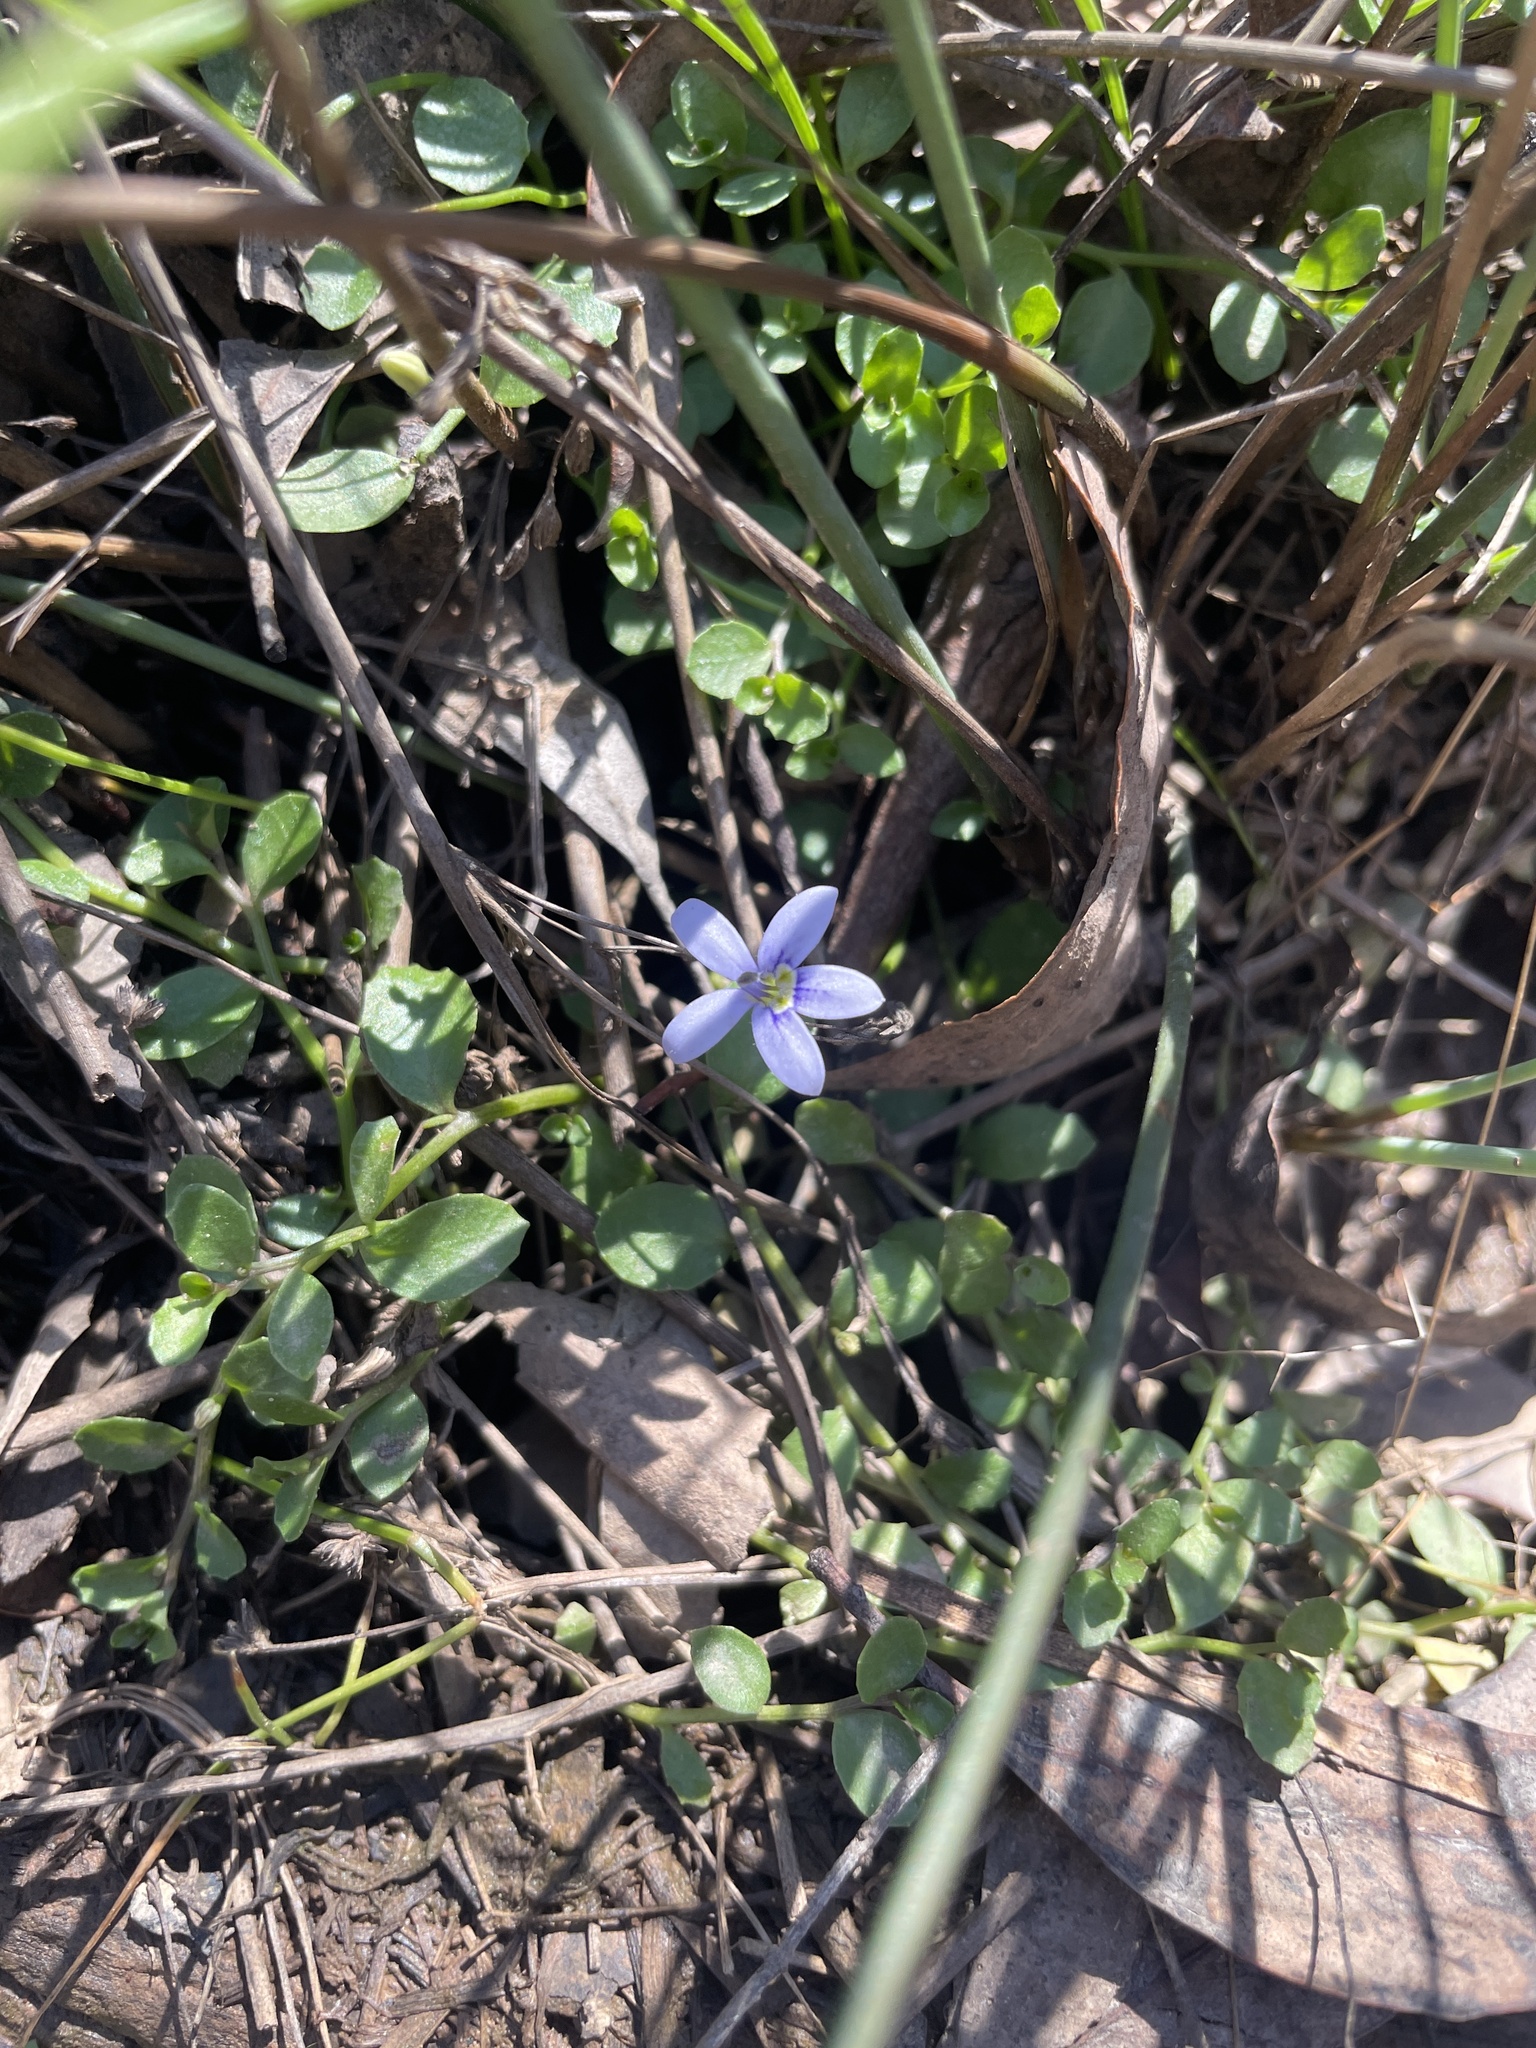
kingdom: Plantae
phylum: Tracheophyta
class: Magnoliopsida
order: Asterales
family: Campanulaceae
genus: Isotoma
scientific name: Isotoma fluviatilis
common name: Isotoma
